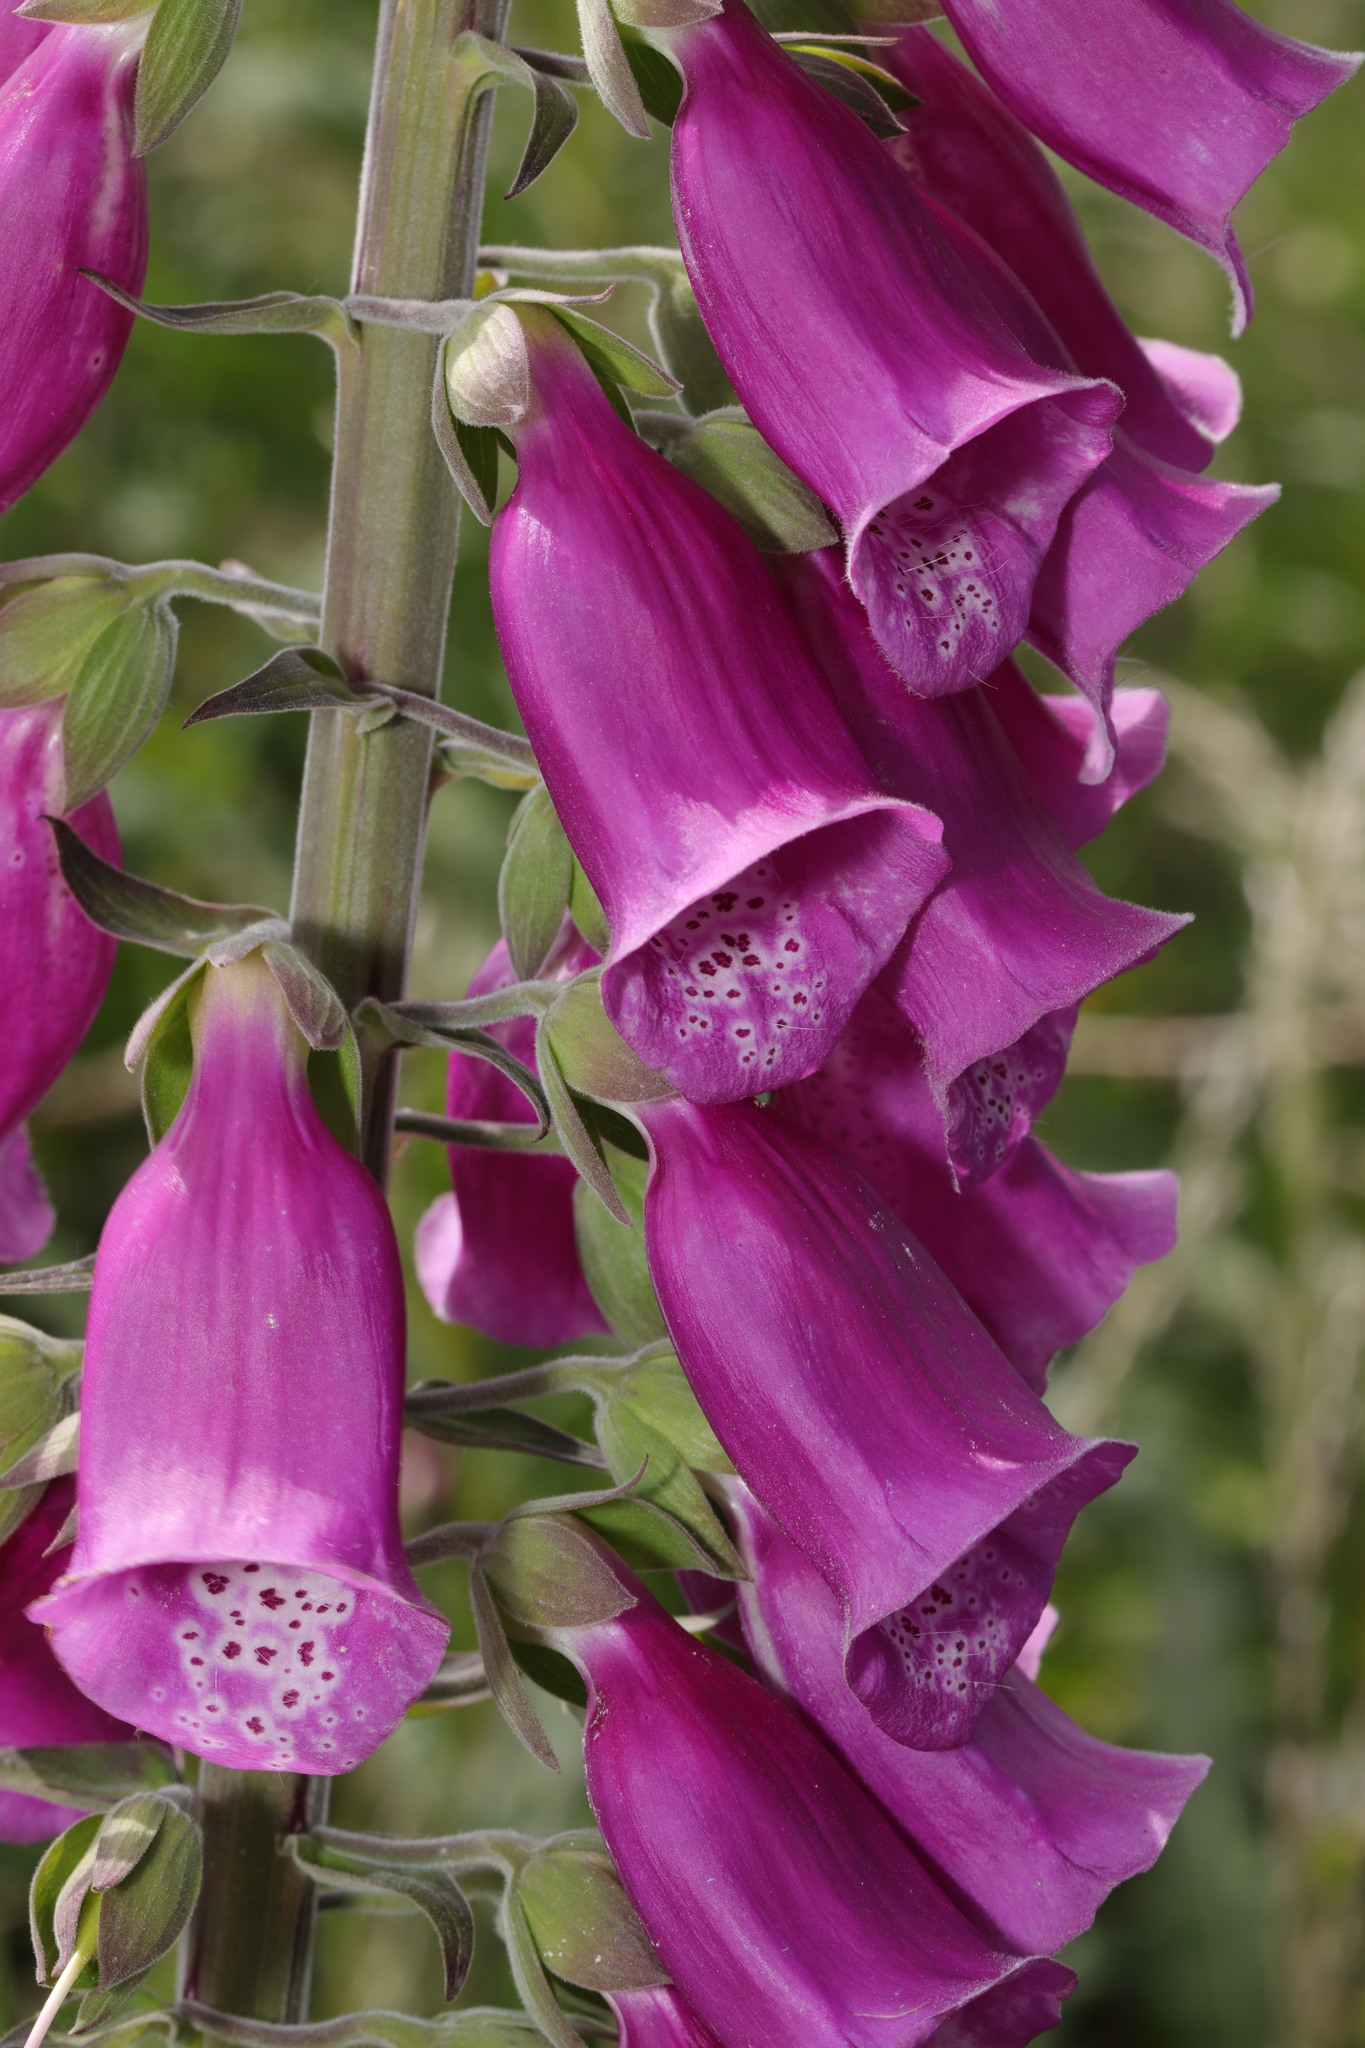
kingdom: Plantae
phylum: Tracheophyta
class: Magnoliopsida
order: Lamiales
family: Plantaginaceae
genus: Digitalis
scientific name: Digitalis purpurea
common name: Foxglove
